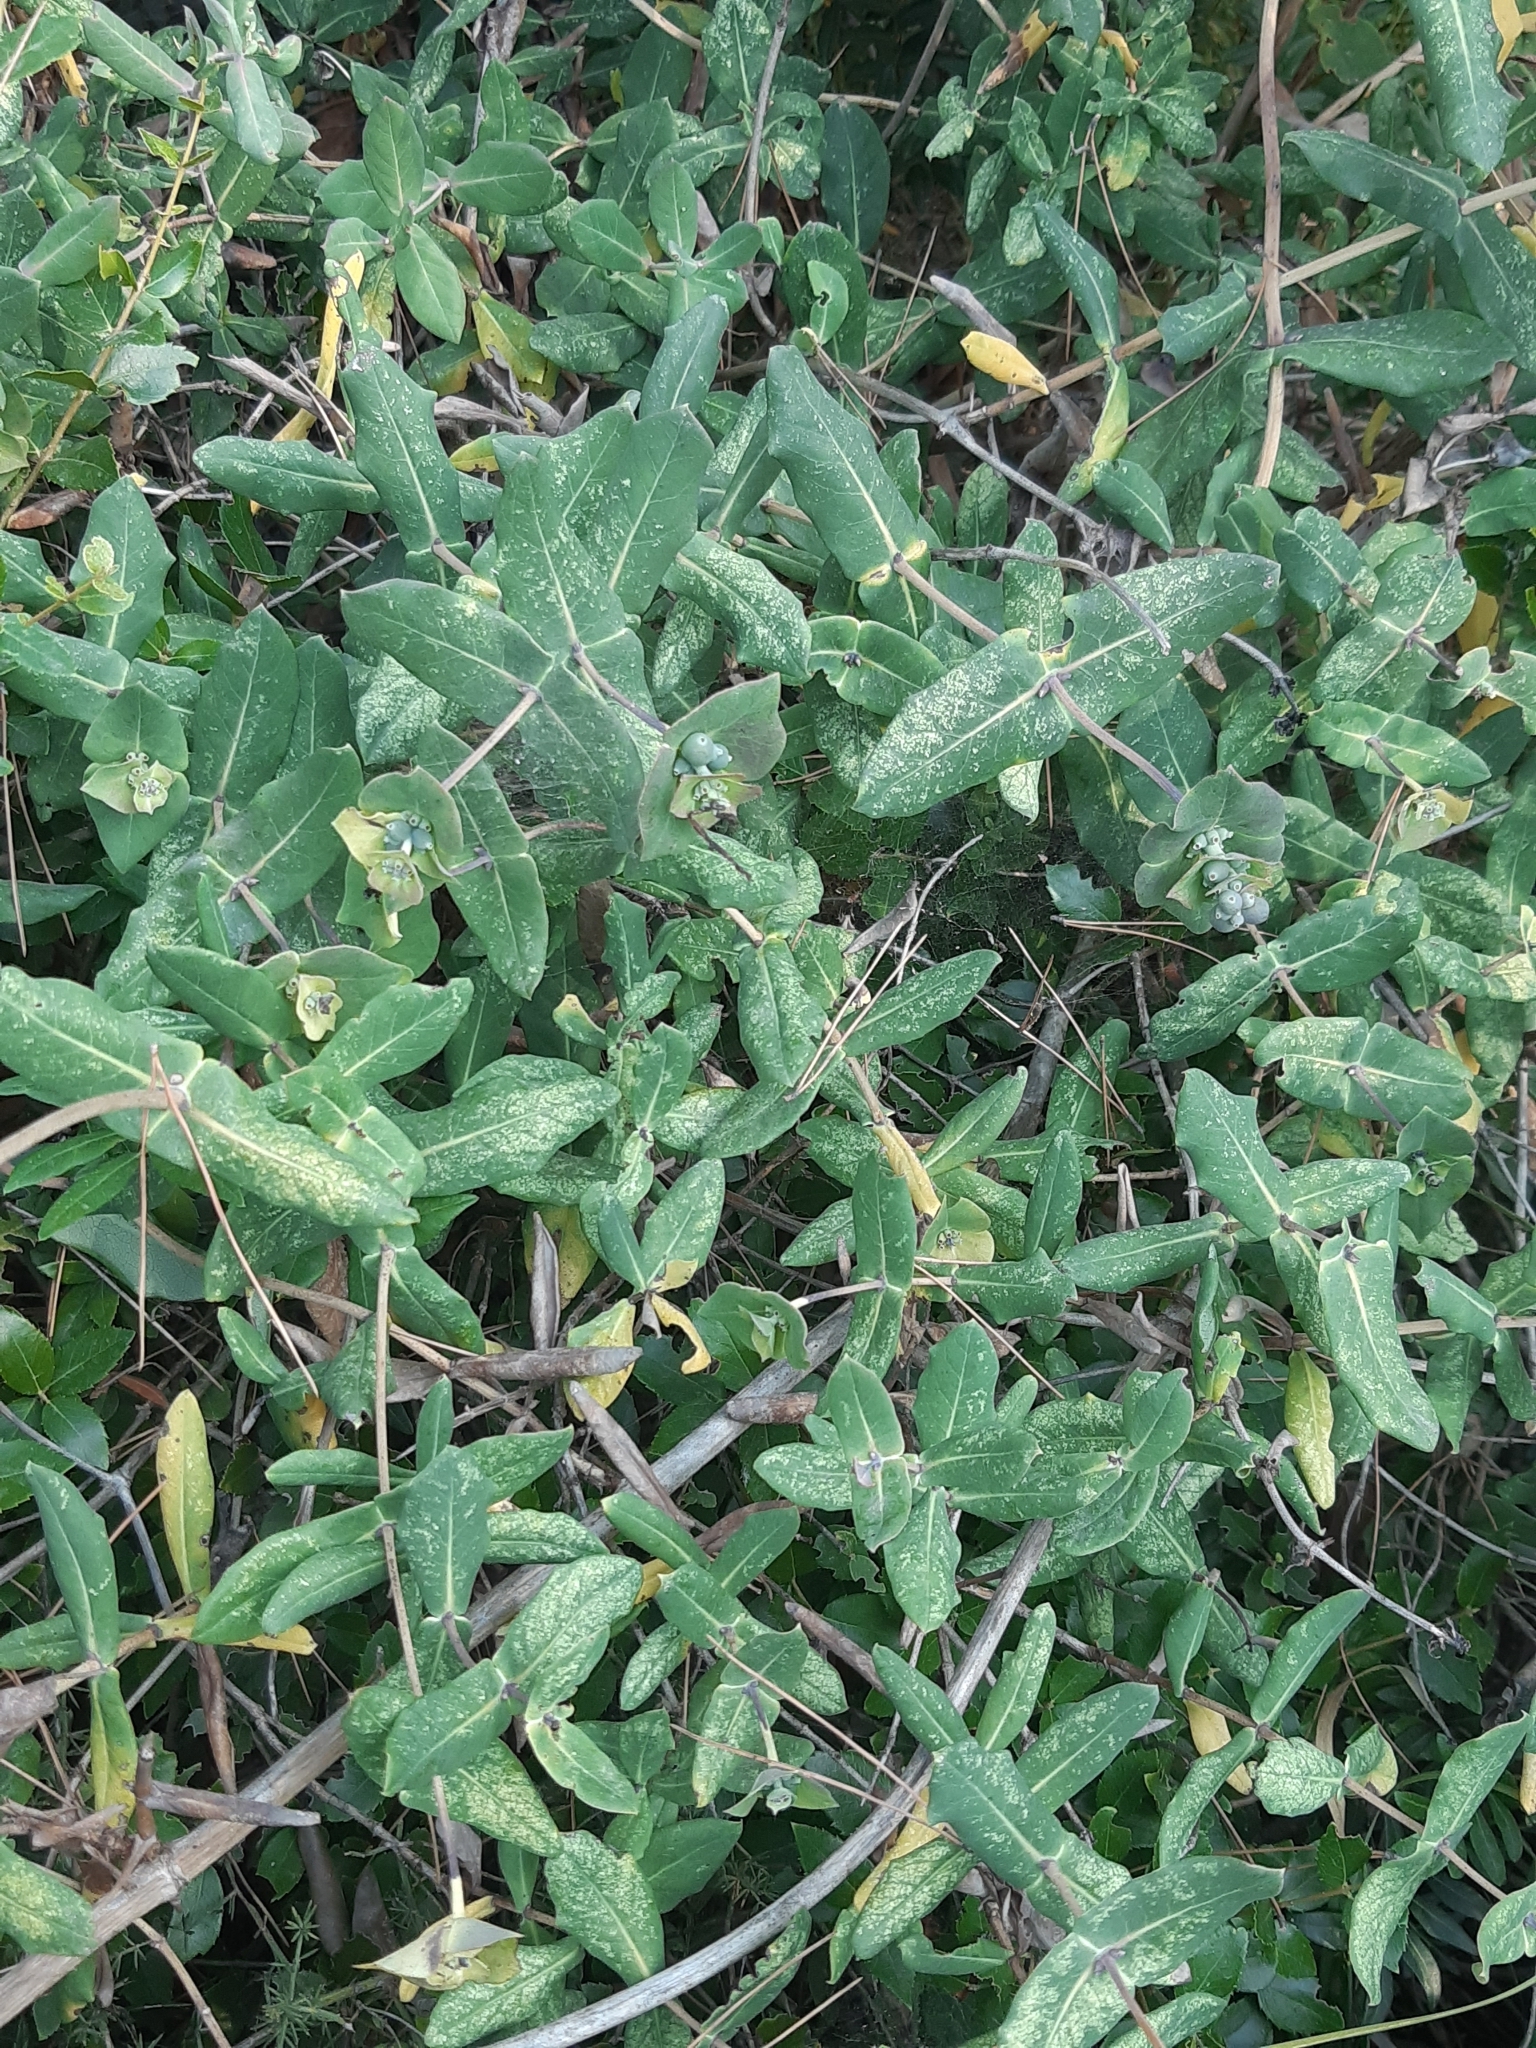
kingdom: Plantae
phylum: Tracheophyta
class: Magnoliopsida
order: Dipsacales
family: Caprifoliaceae
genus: Lonicera
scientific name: Lonicera implexa
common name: Minorca honeysuckle
